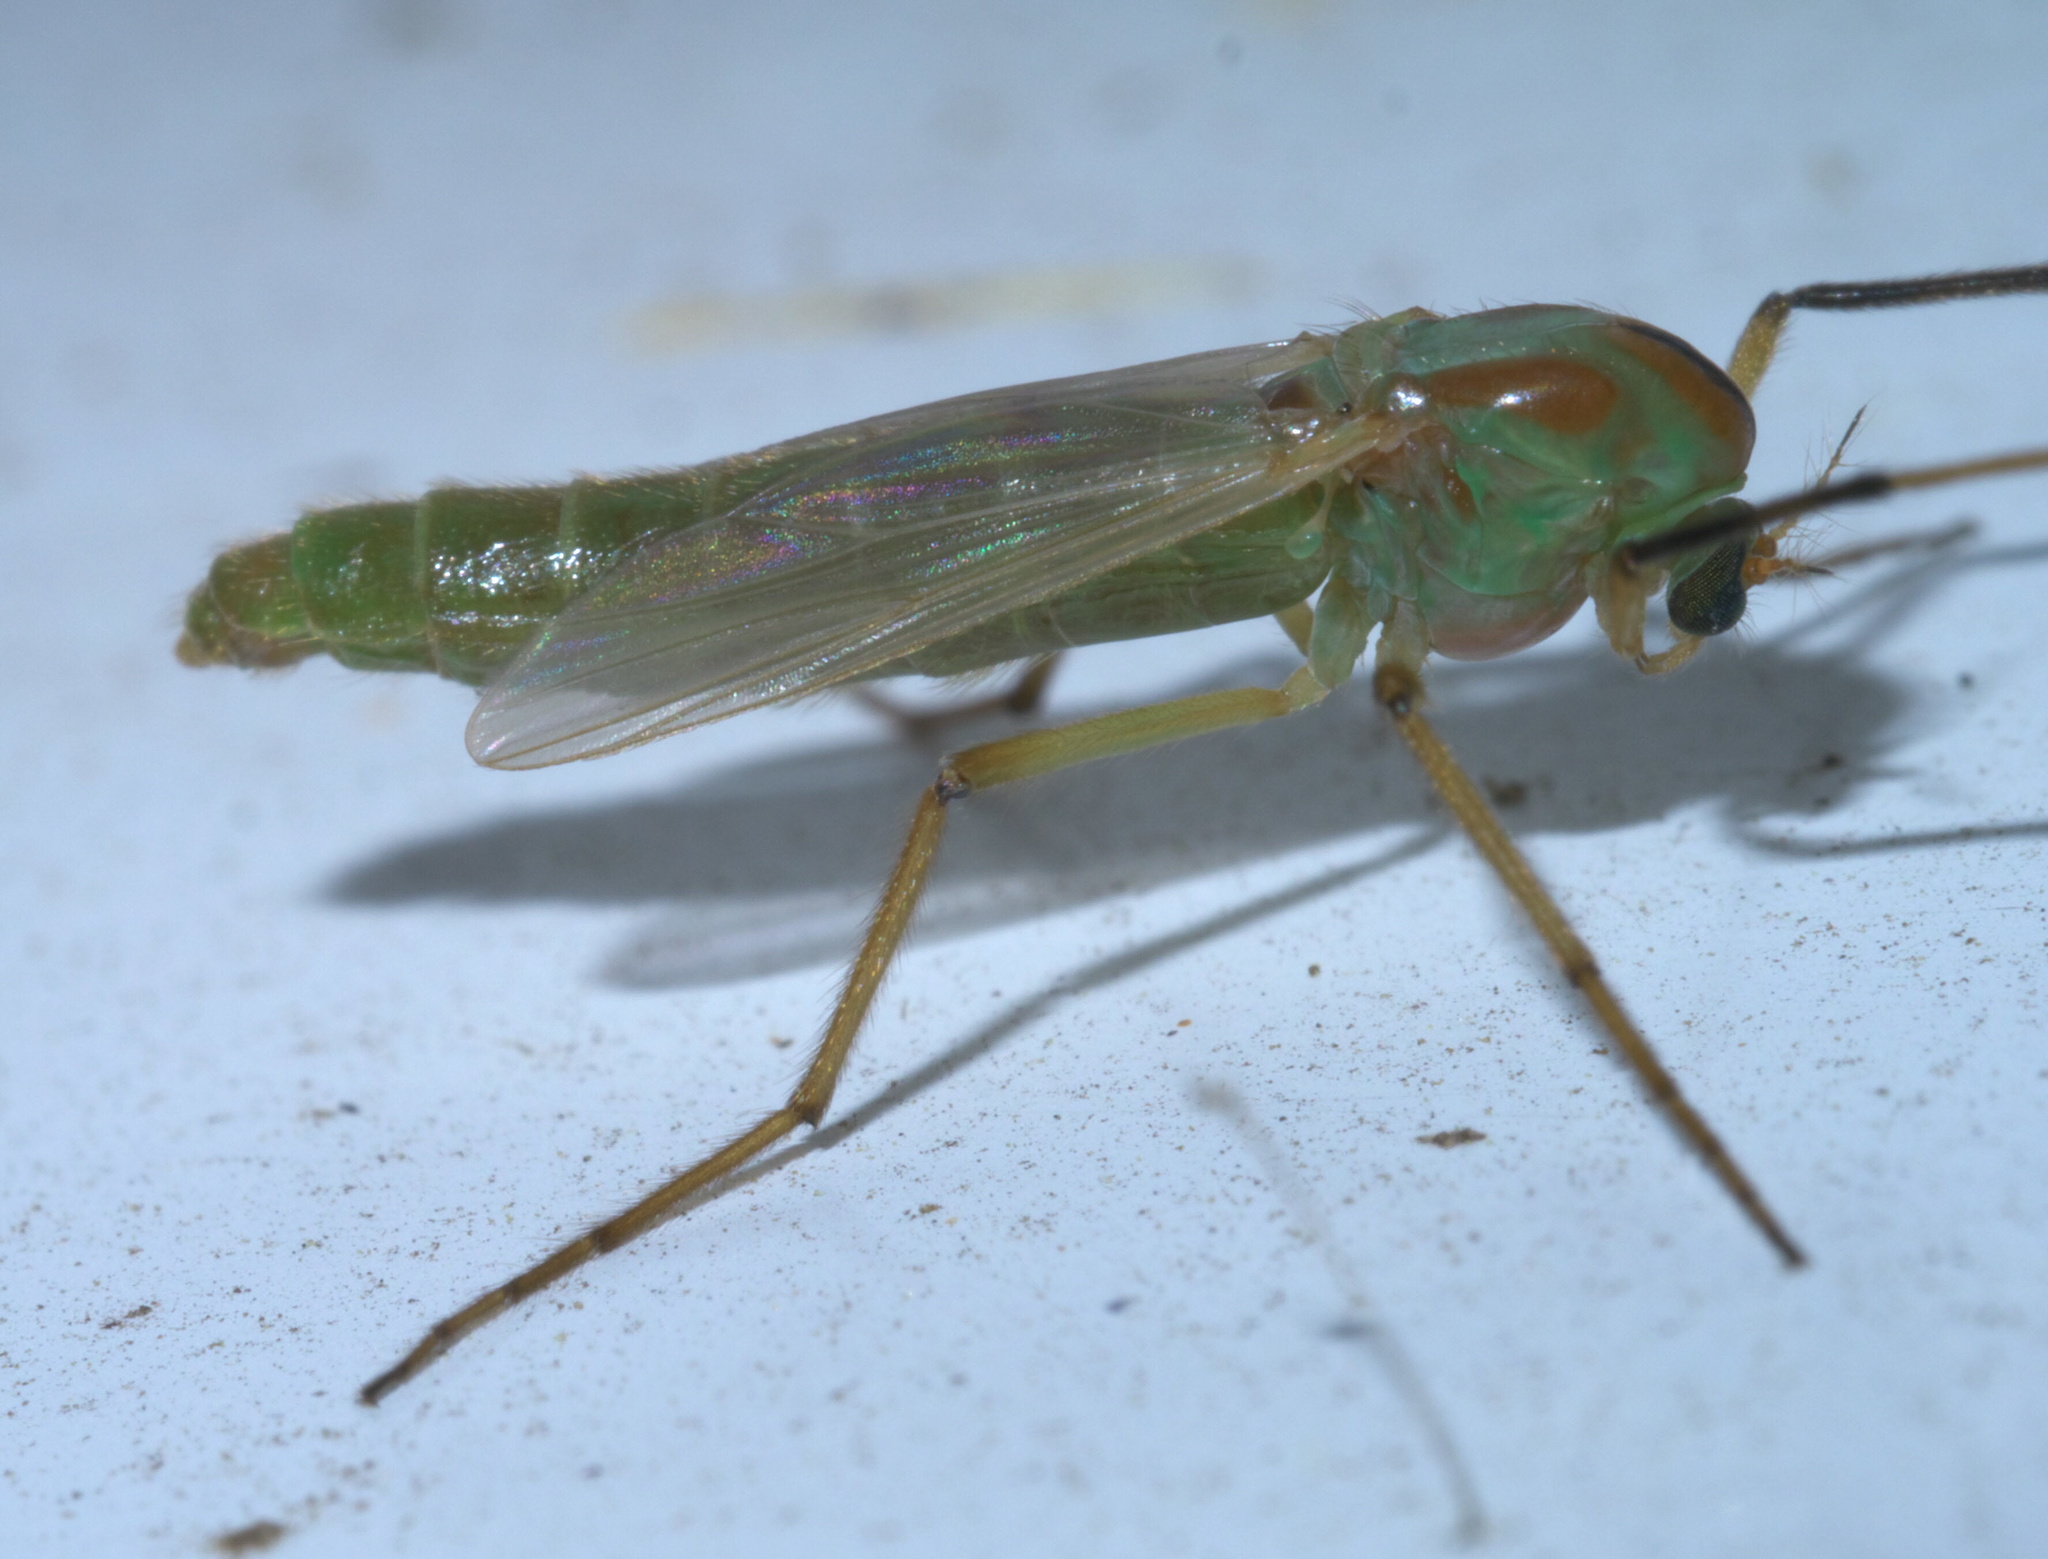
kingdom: Animalia
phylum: Arthropoda
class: Insecta
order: Diptera
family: Chironomidae
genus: Axarus
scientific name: Axarus
